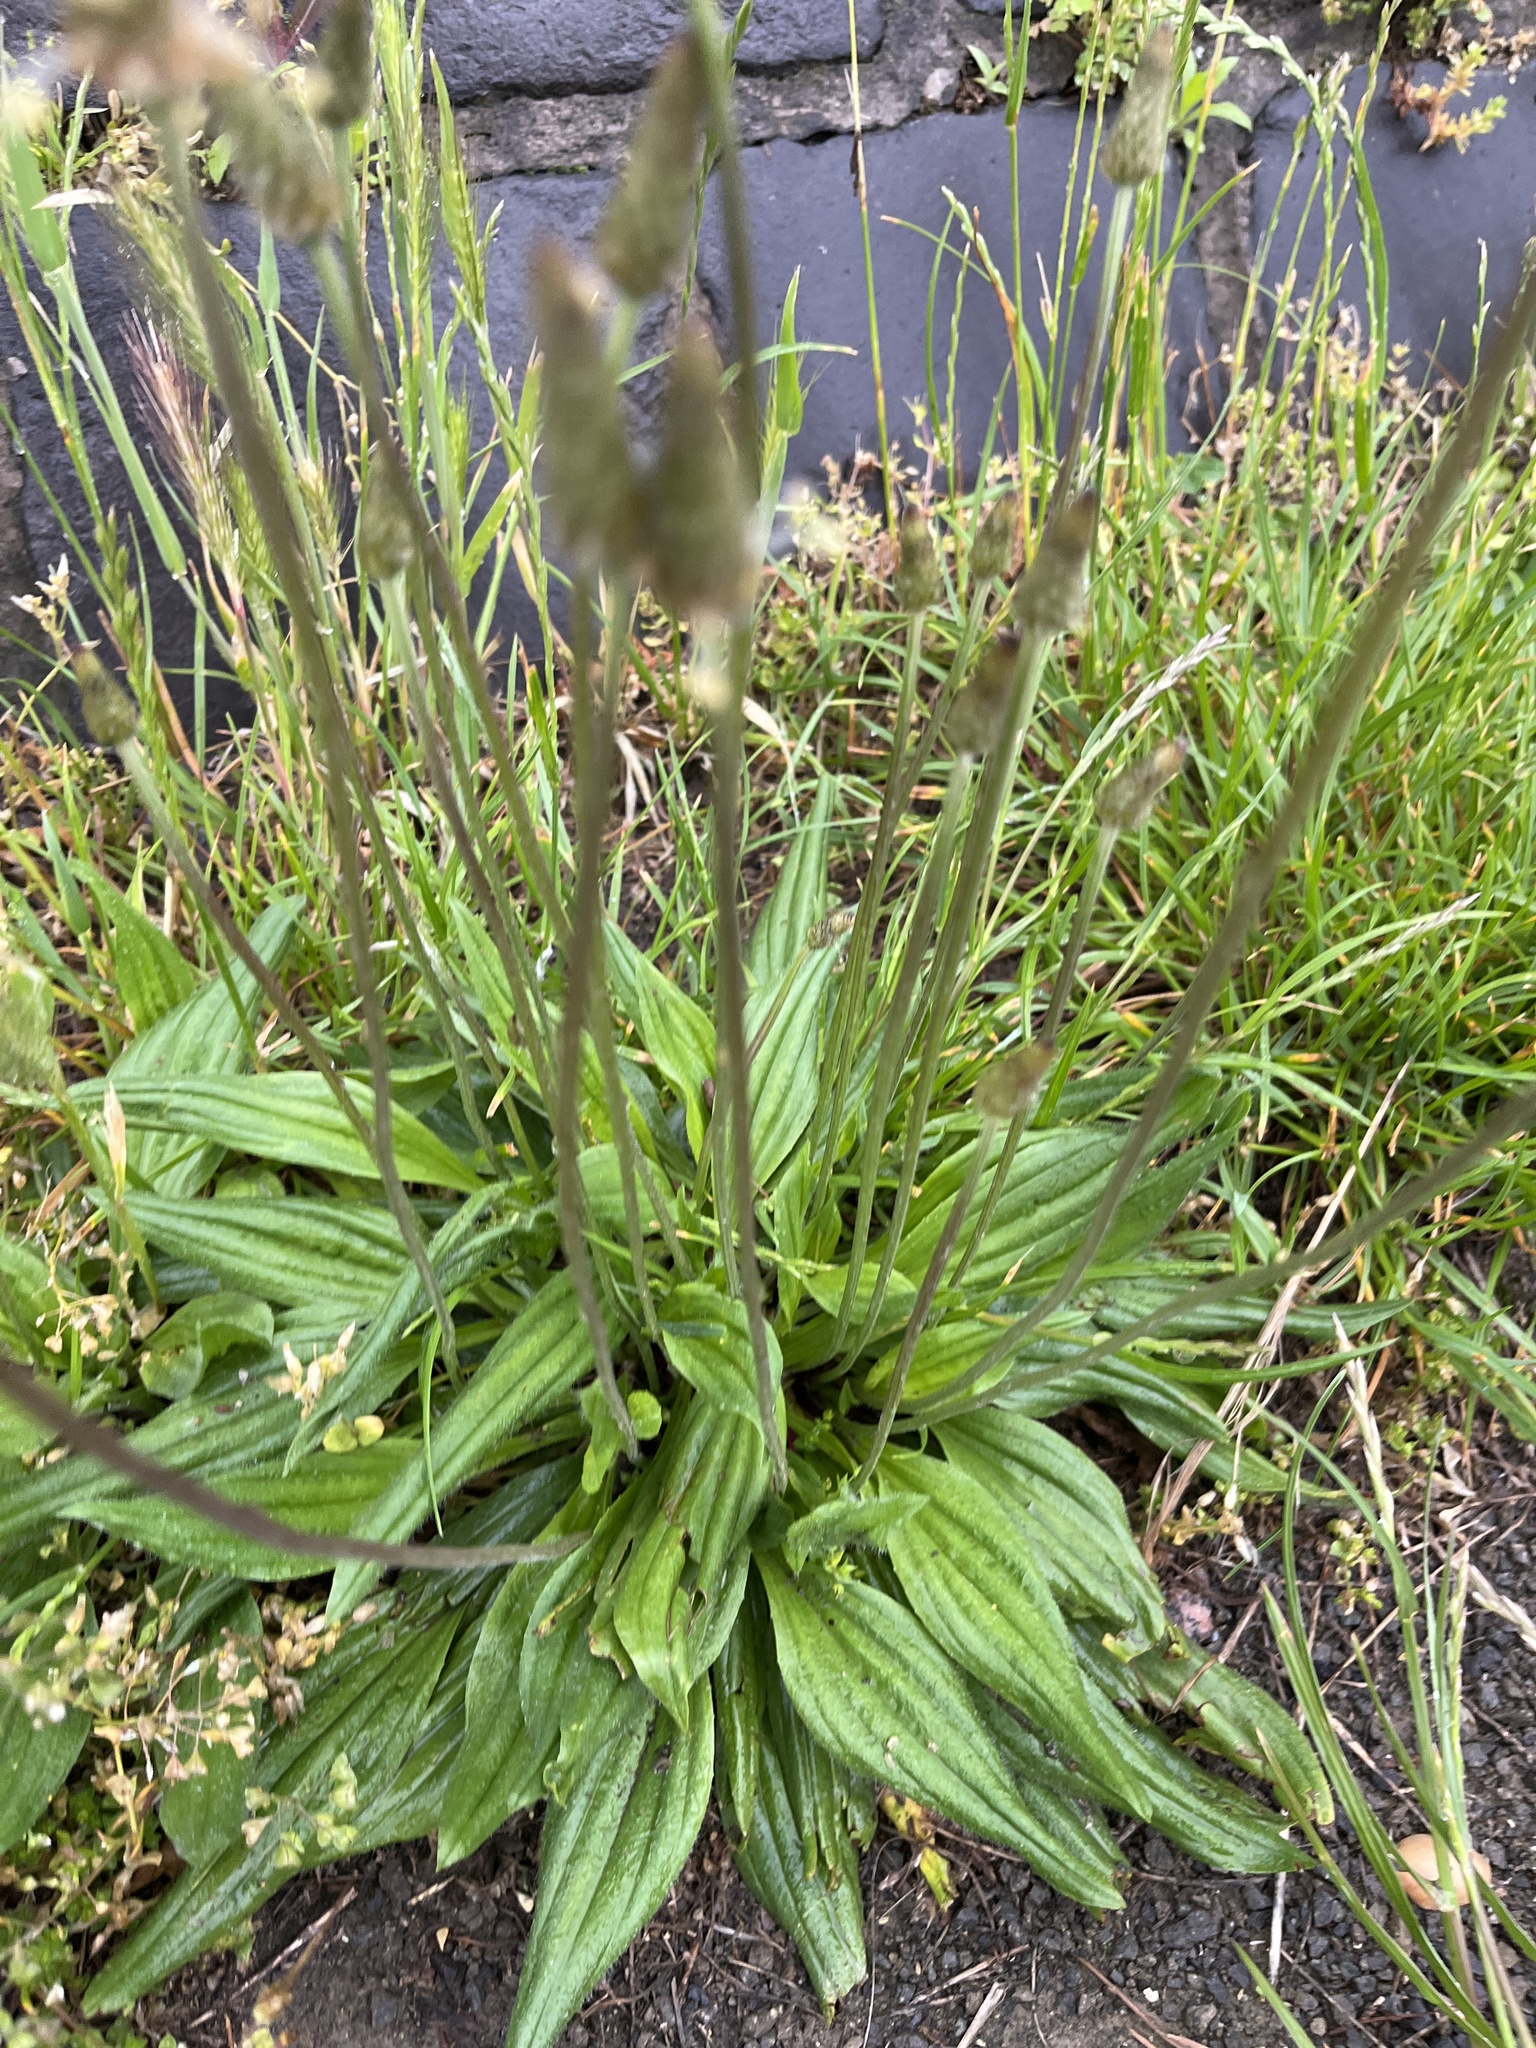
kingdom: Plantae
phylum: Tracheophyta
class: Magnoliopsida
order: Lamiales
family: Plantaginaceae
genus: Plantago
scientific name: Plantago lanceolata
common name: Ribwort plantain
